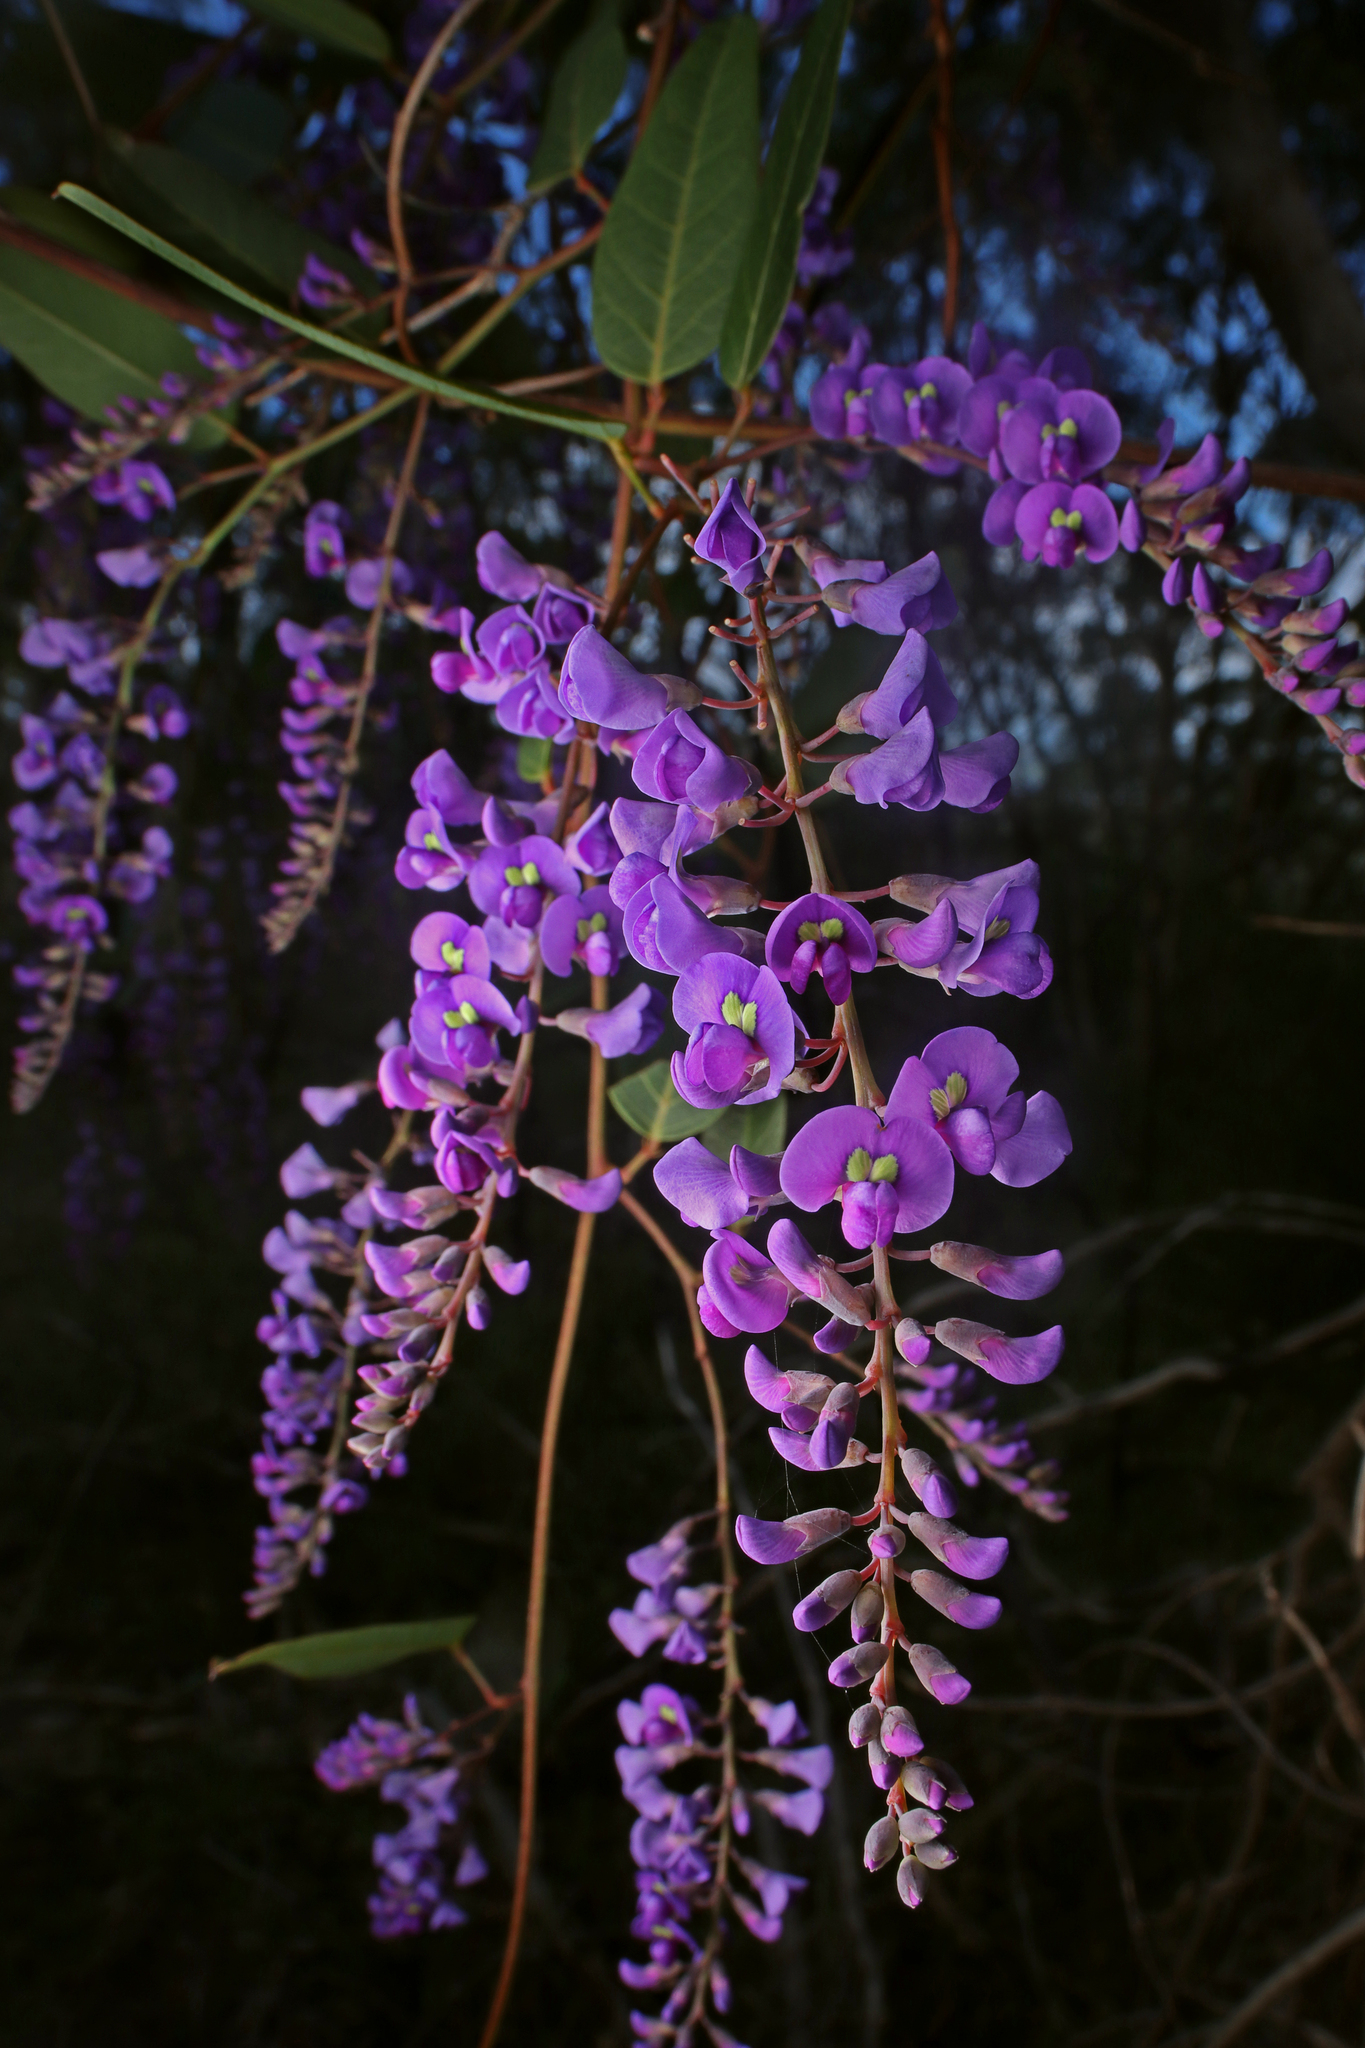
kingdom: Plantae
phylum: Tracheophyta
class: Magnoliopsida
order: Fabales
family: Fabaceae
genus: Hardenbergia
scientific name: Hardenbergia violacea
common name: Coral-pea
